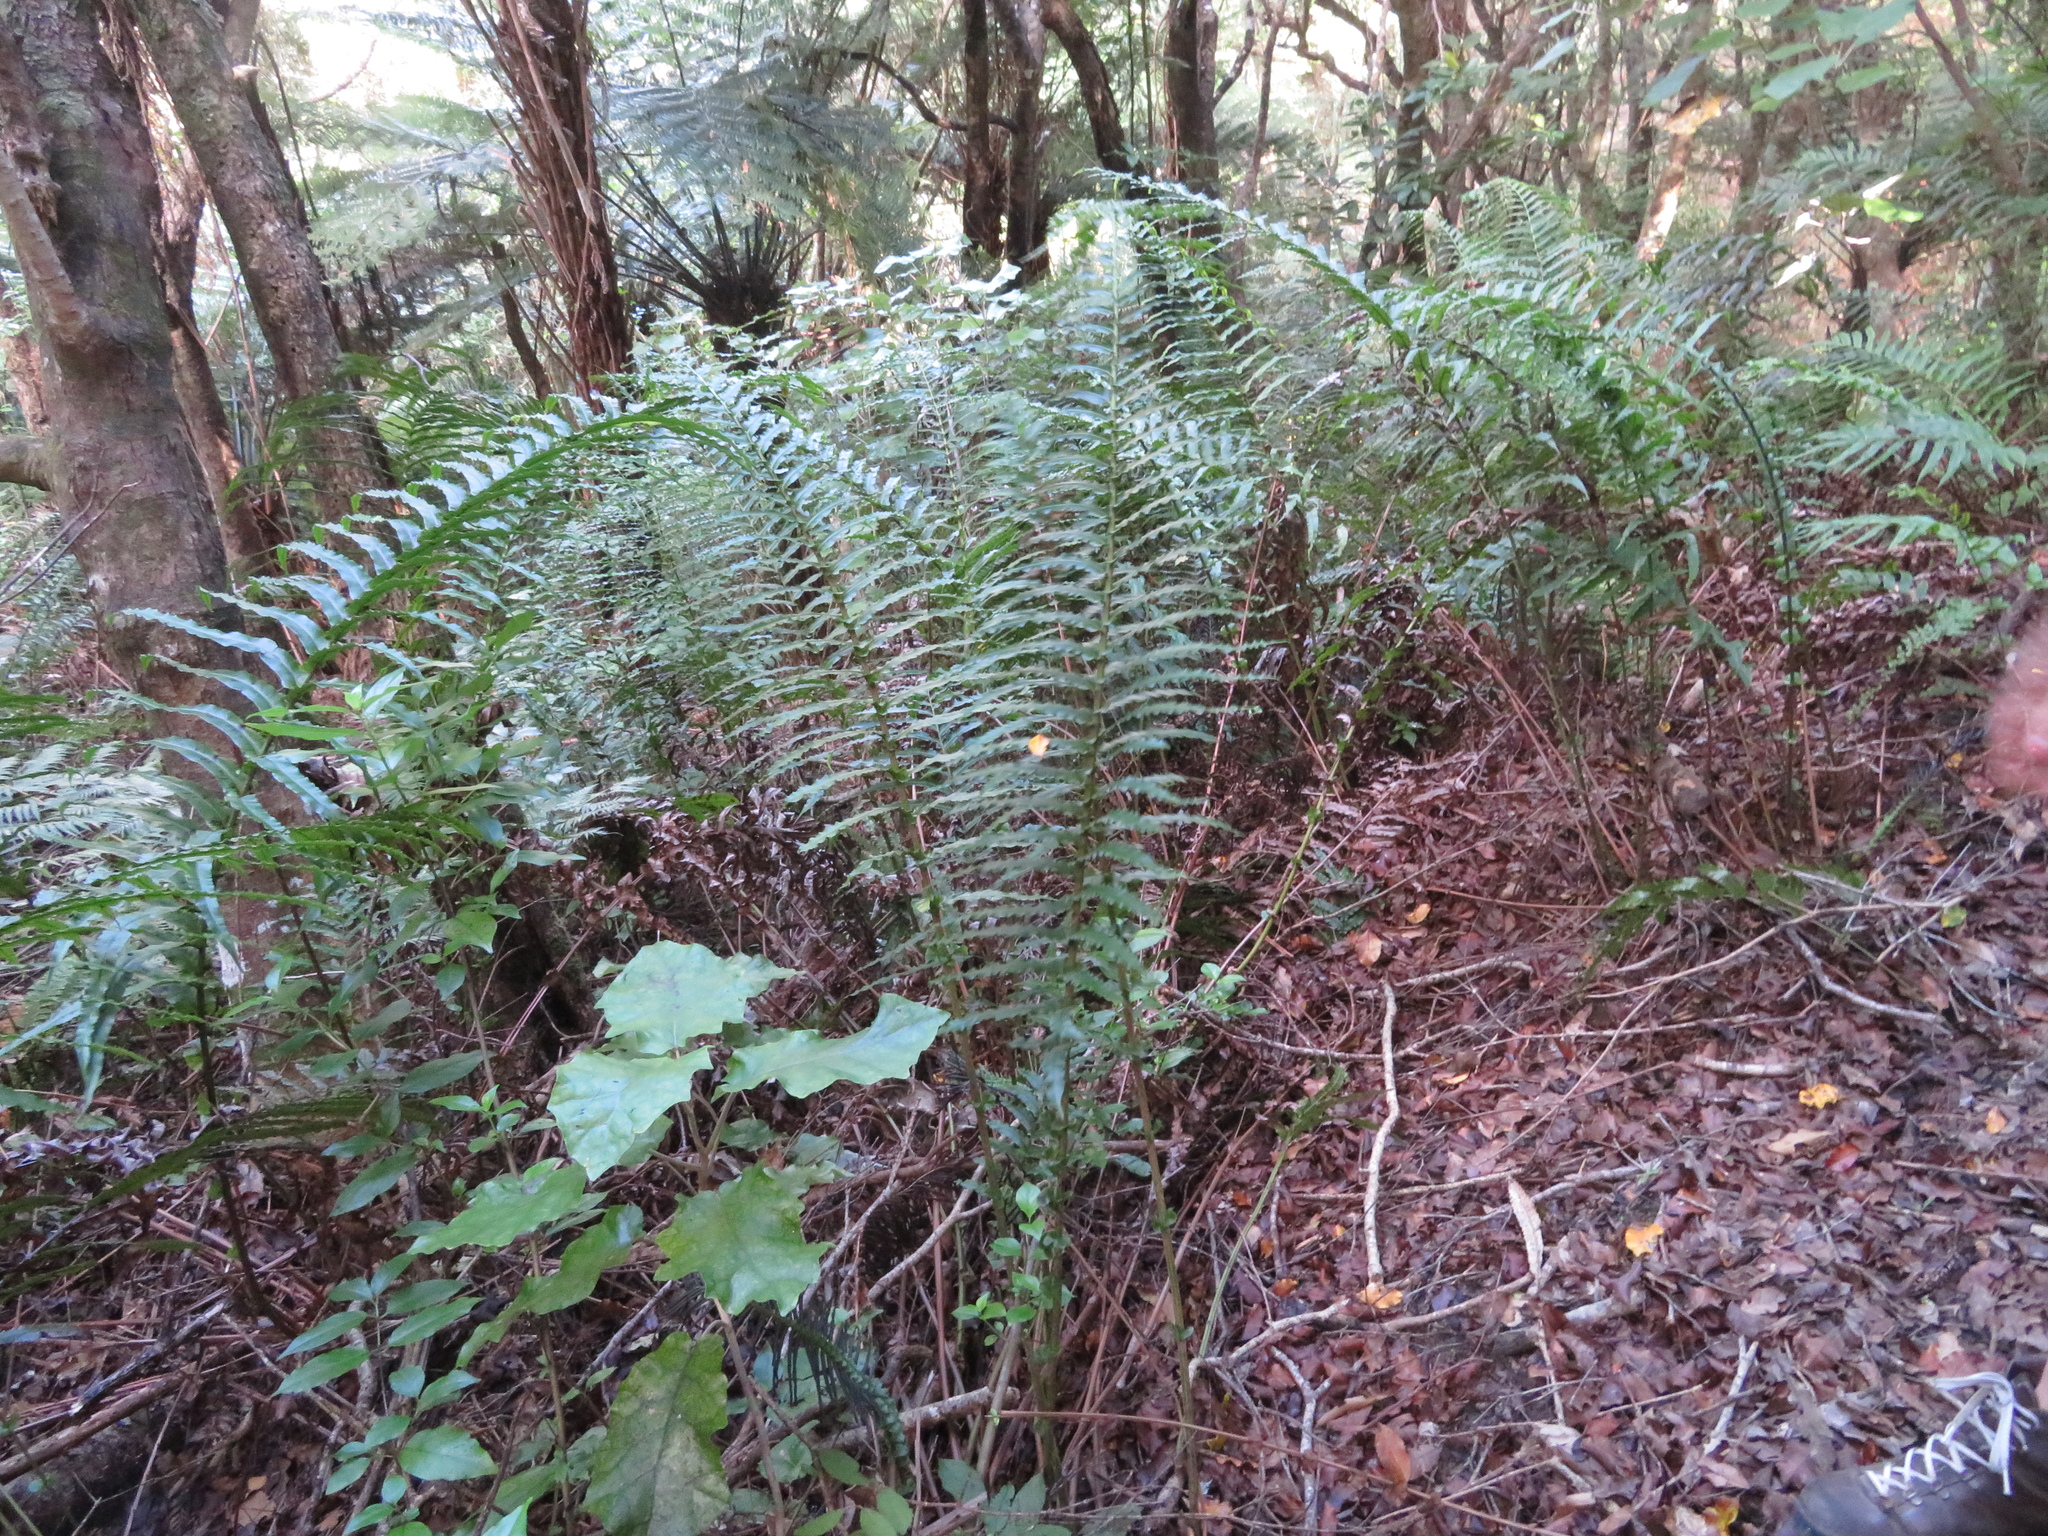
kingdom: Plantae
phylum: Tracheophyta
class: Polypodiopsida
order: Polypodiales
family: Blechnaceae
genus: Parablechnum
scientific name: Parablechnum novae-zelandiae
